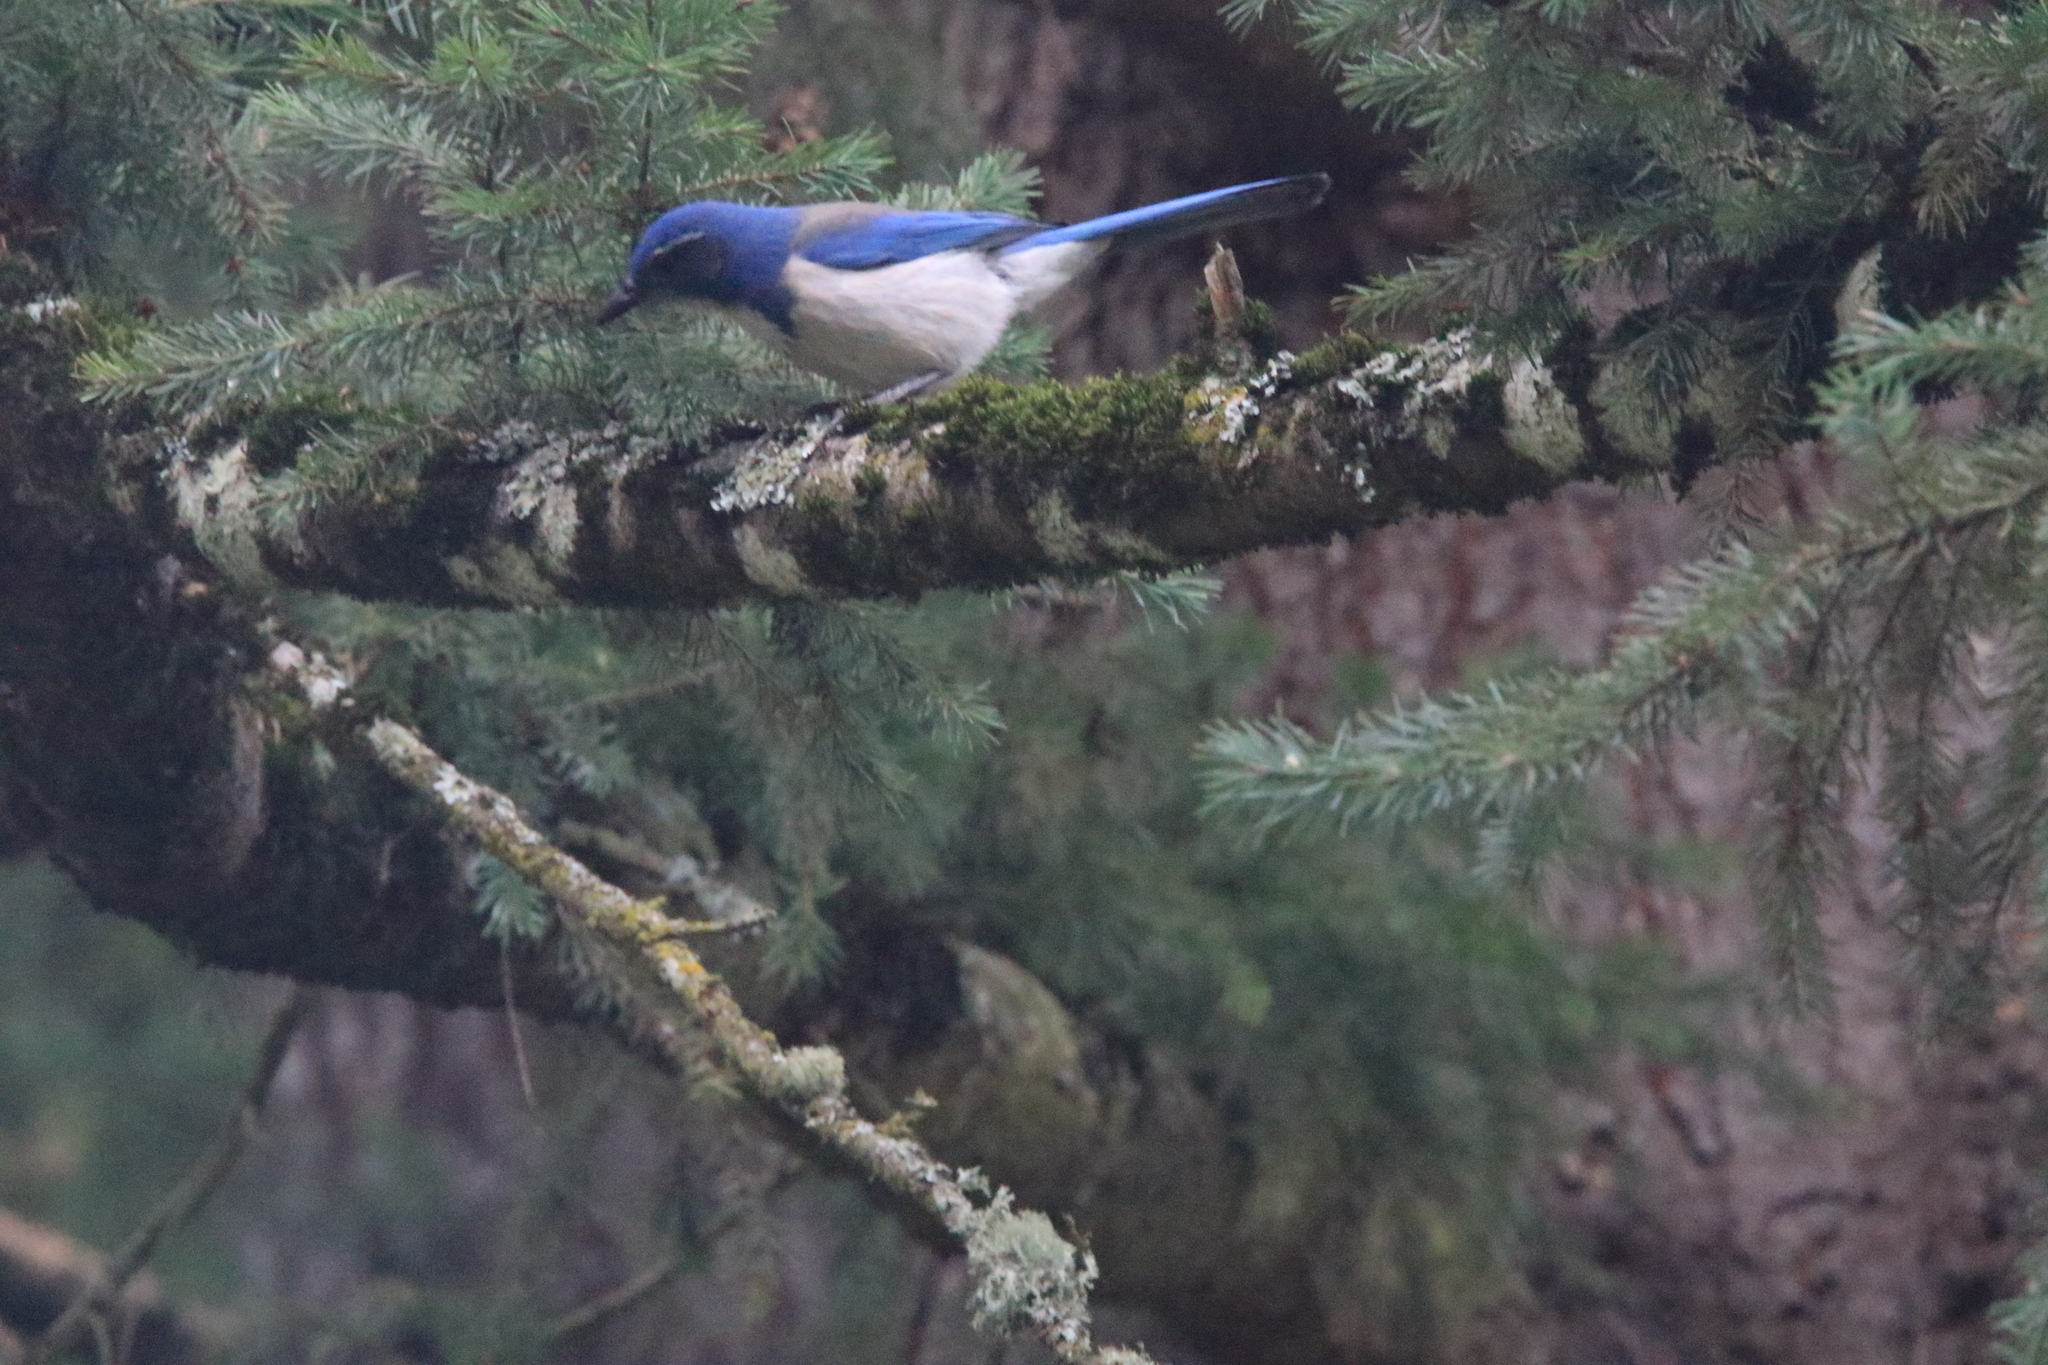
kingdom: Animalia
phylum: Chordata
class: Aves
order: Passeriformes
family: Corvidae
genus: Aphelocoma
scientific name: Aphelocoma californica
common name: California scrub-jay
